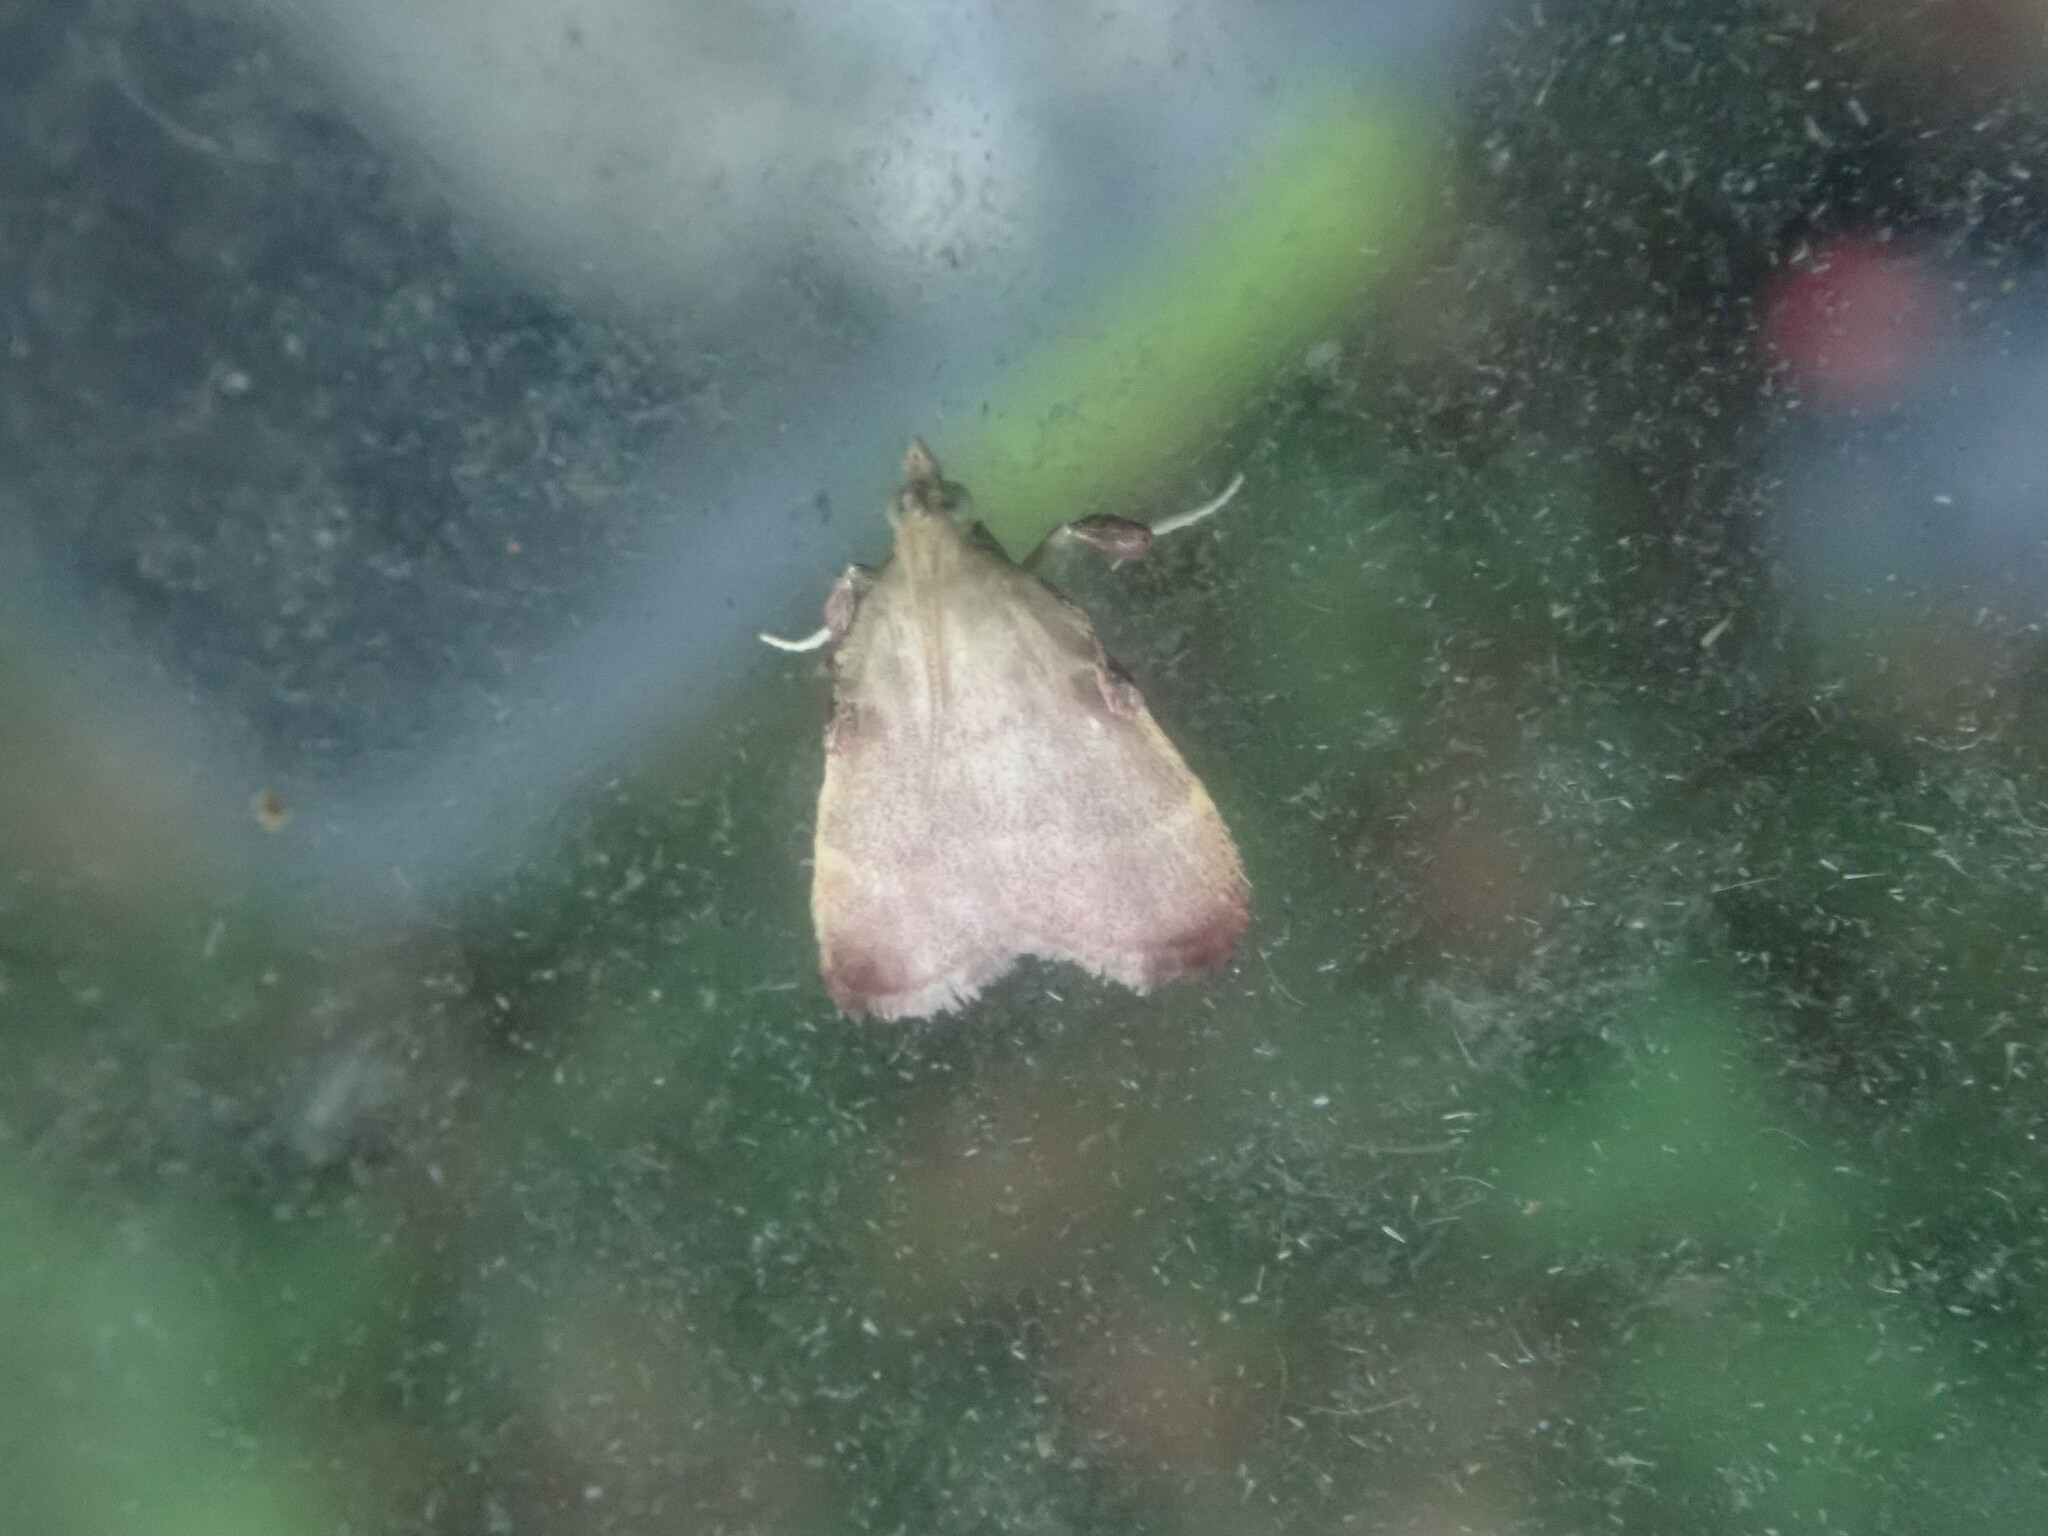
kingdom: Animalia
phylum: Arthropoda
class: Insecta
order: Lepidoptera
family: Pyralidae
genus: Condylolomia
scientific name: Condylolomia participialis
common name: Drab condylolomia moth
